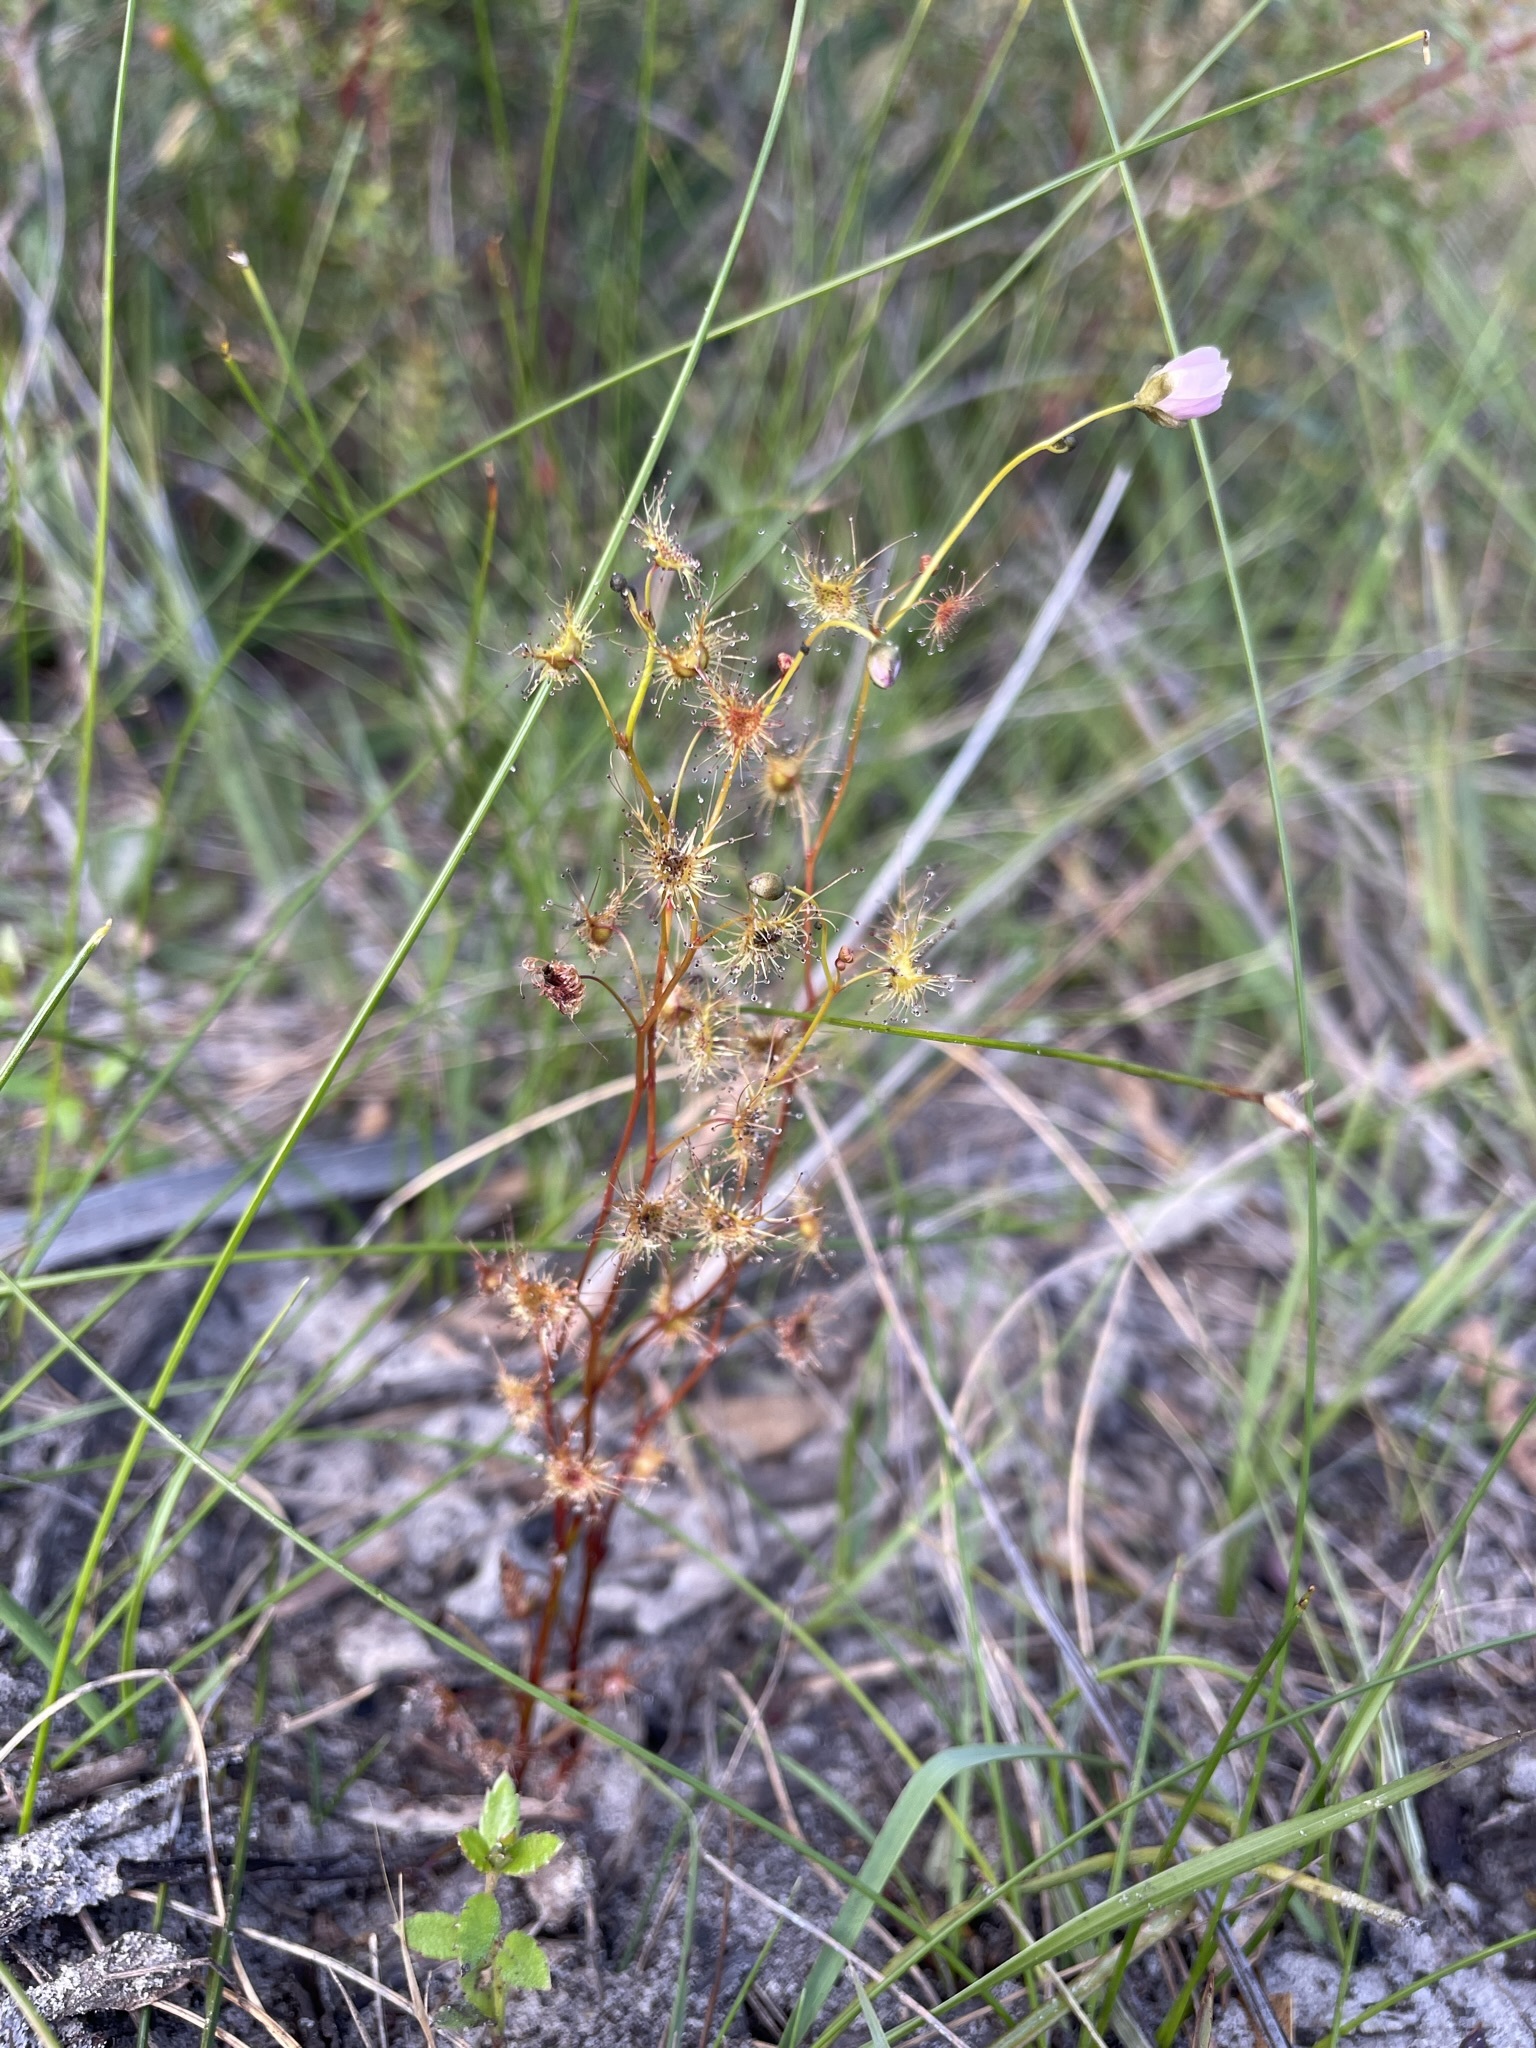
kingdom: Plantae
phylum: Tracheophyta
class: Magnoliopsida
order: Caryophyllales
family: Droseraceae
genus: Drosera
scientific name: Drosera peltata
